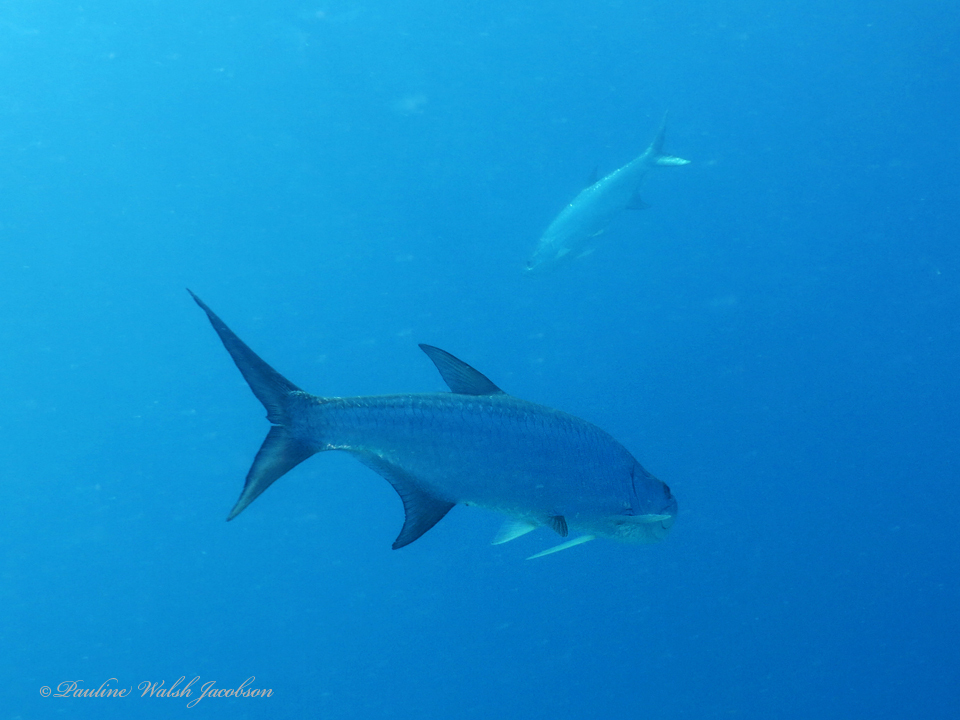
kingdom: Animalia
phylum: Chordata
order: Elopiformes
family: Megalopidae
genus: Megalops
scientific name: Megalops atlanticus
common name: Tarpon
